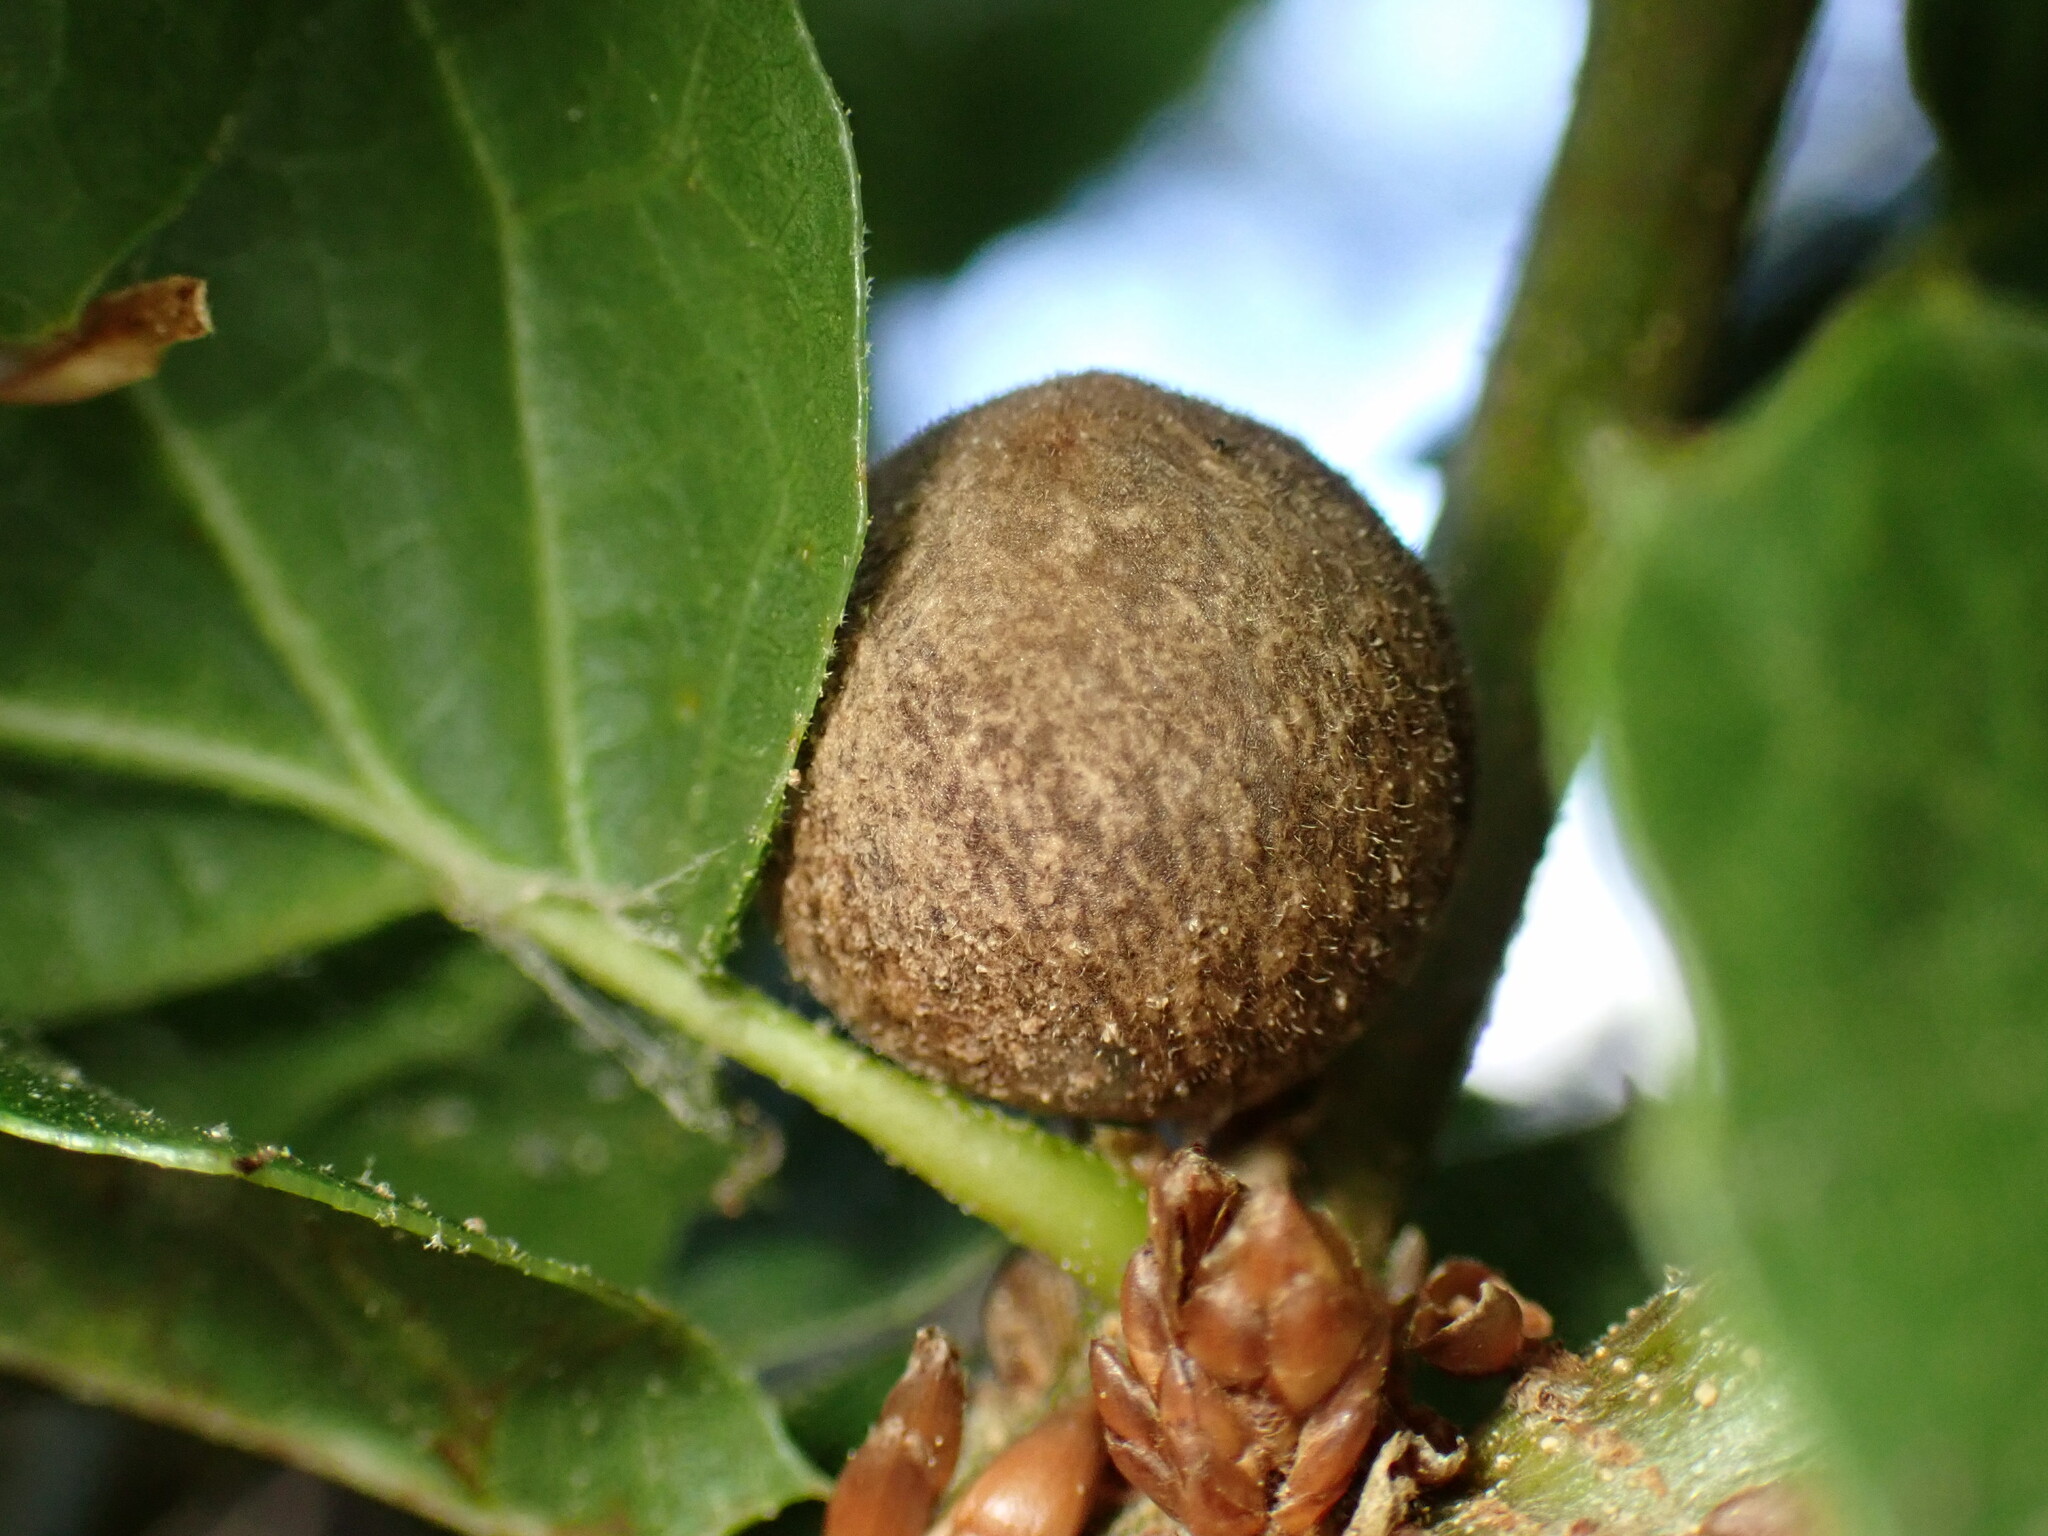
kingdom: Animalia
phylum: Arthropoda
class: Insecta
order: Hymenoptera
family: Cynipidae
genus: Callirhytis
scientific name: Callirhytis
